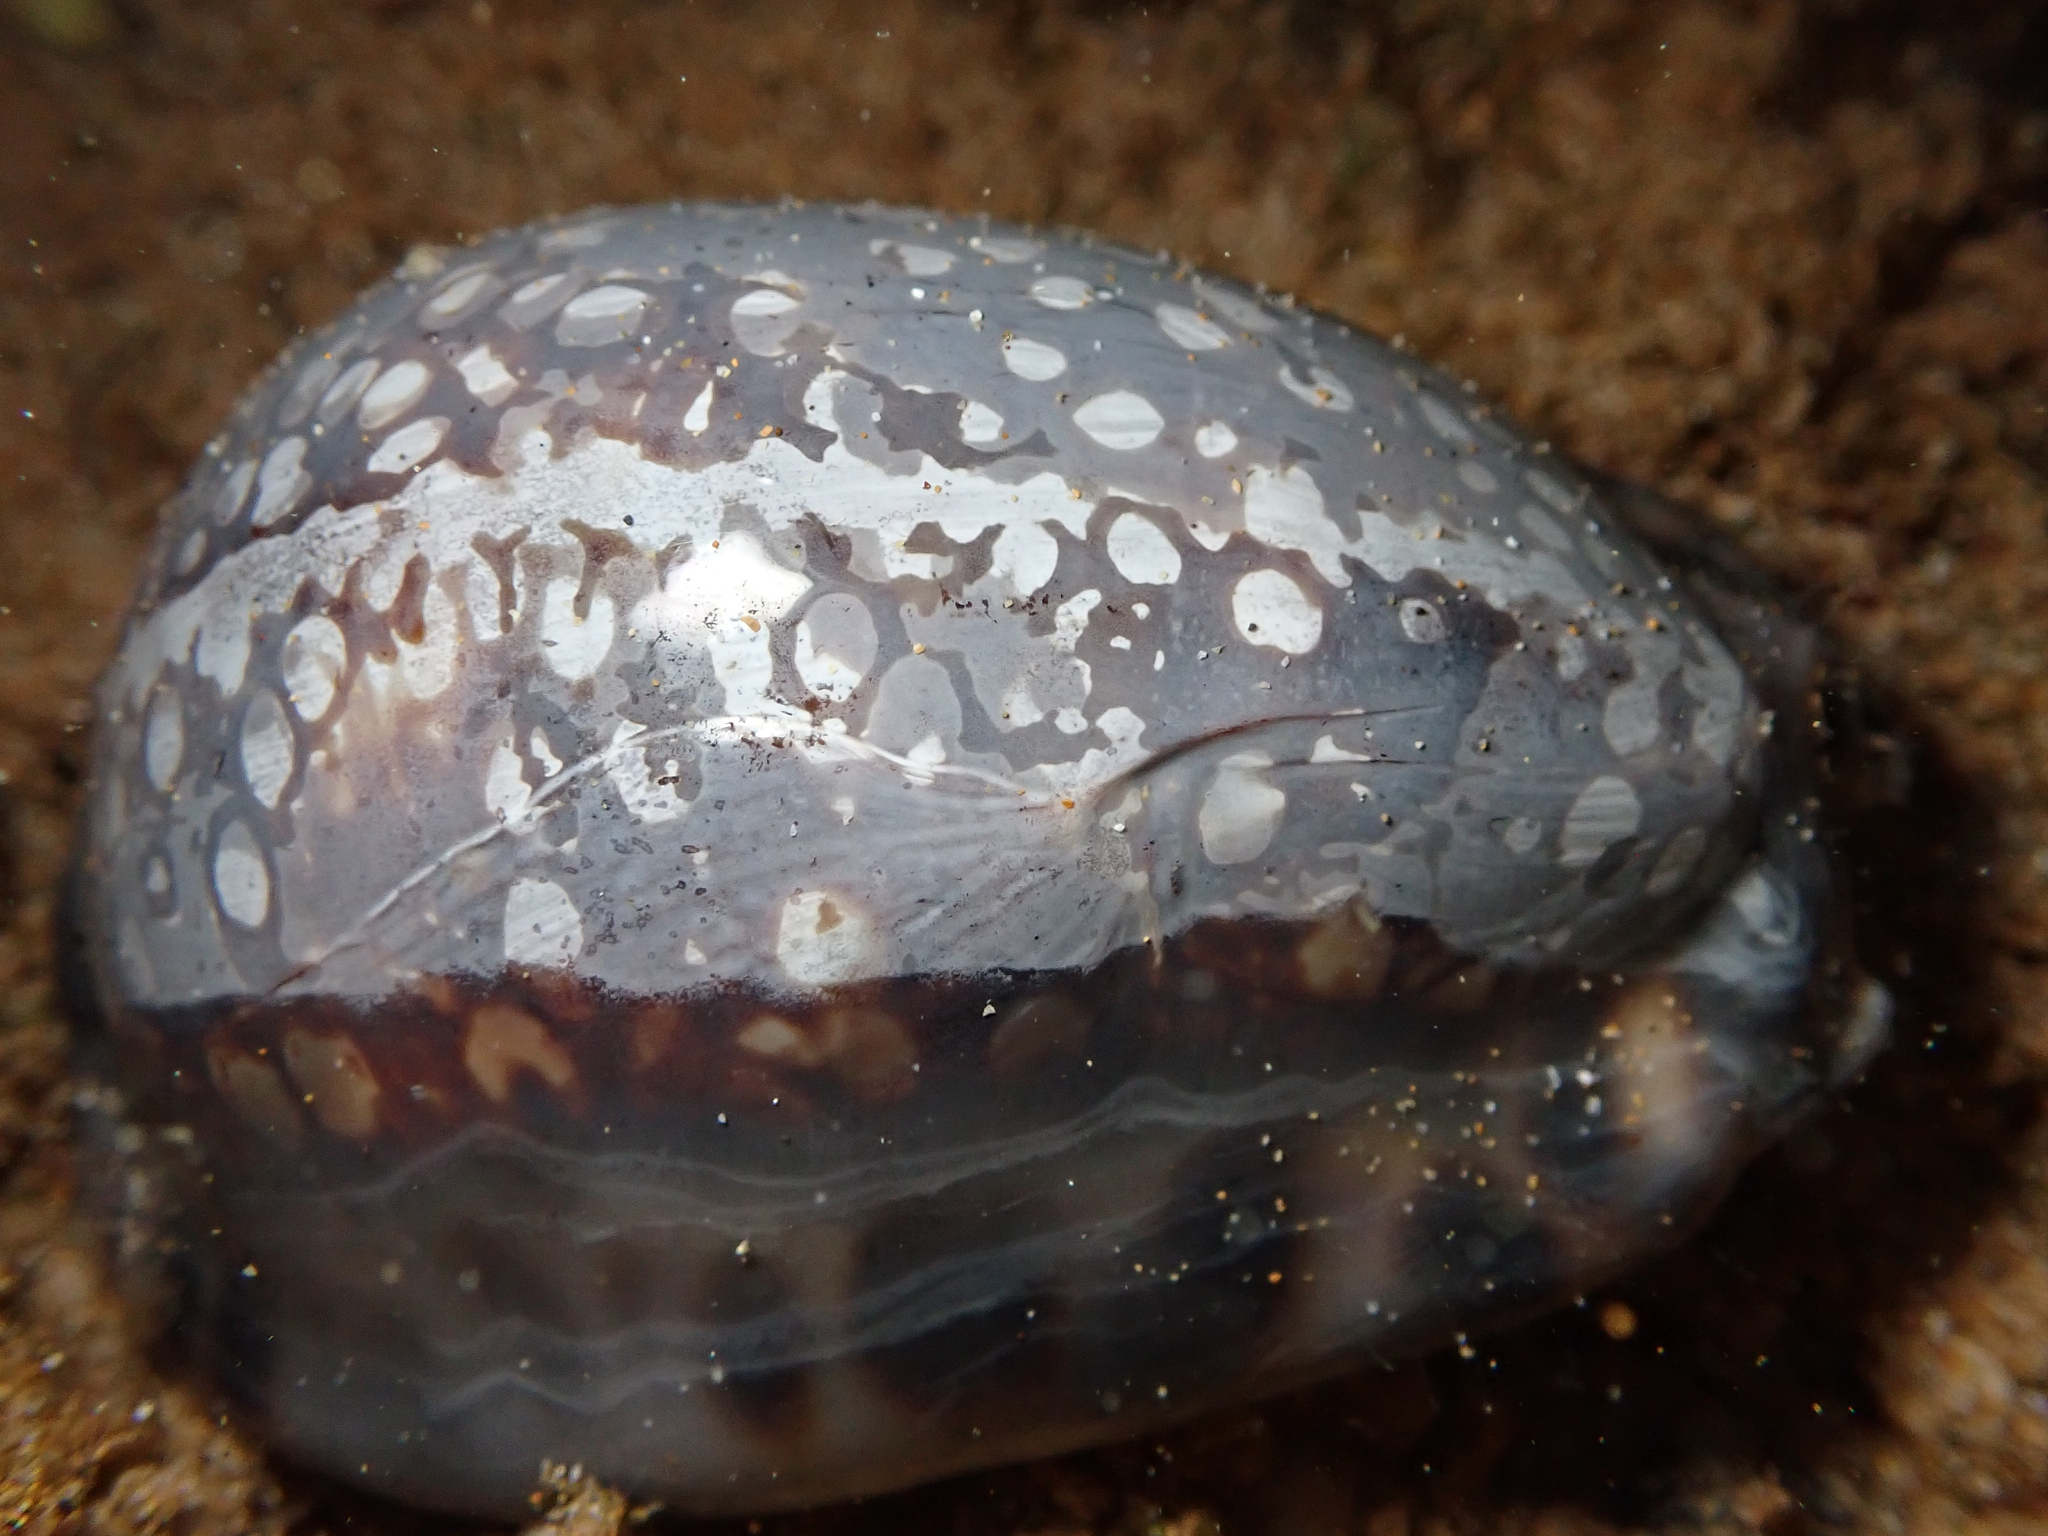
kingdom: Animalia
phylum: Mollusca
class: Gastropoda
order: Littorinimorpha
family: Cypraeidae
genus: Mauritia
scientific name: Mauritia maculifera
